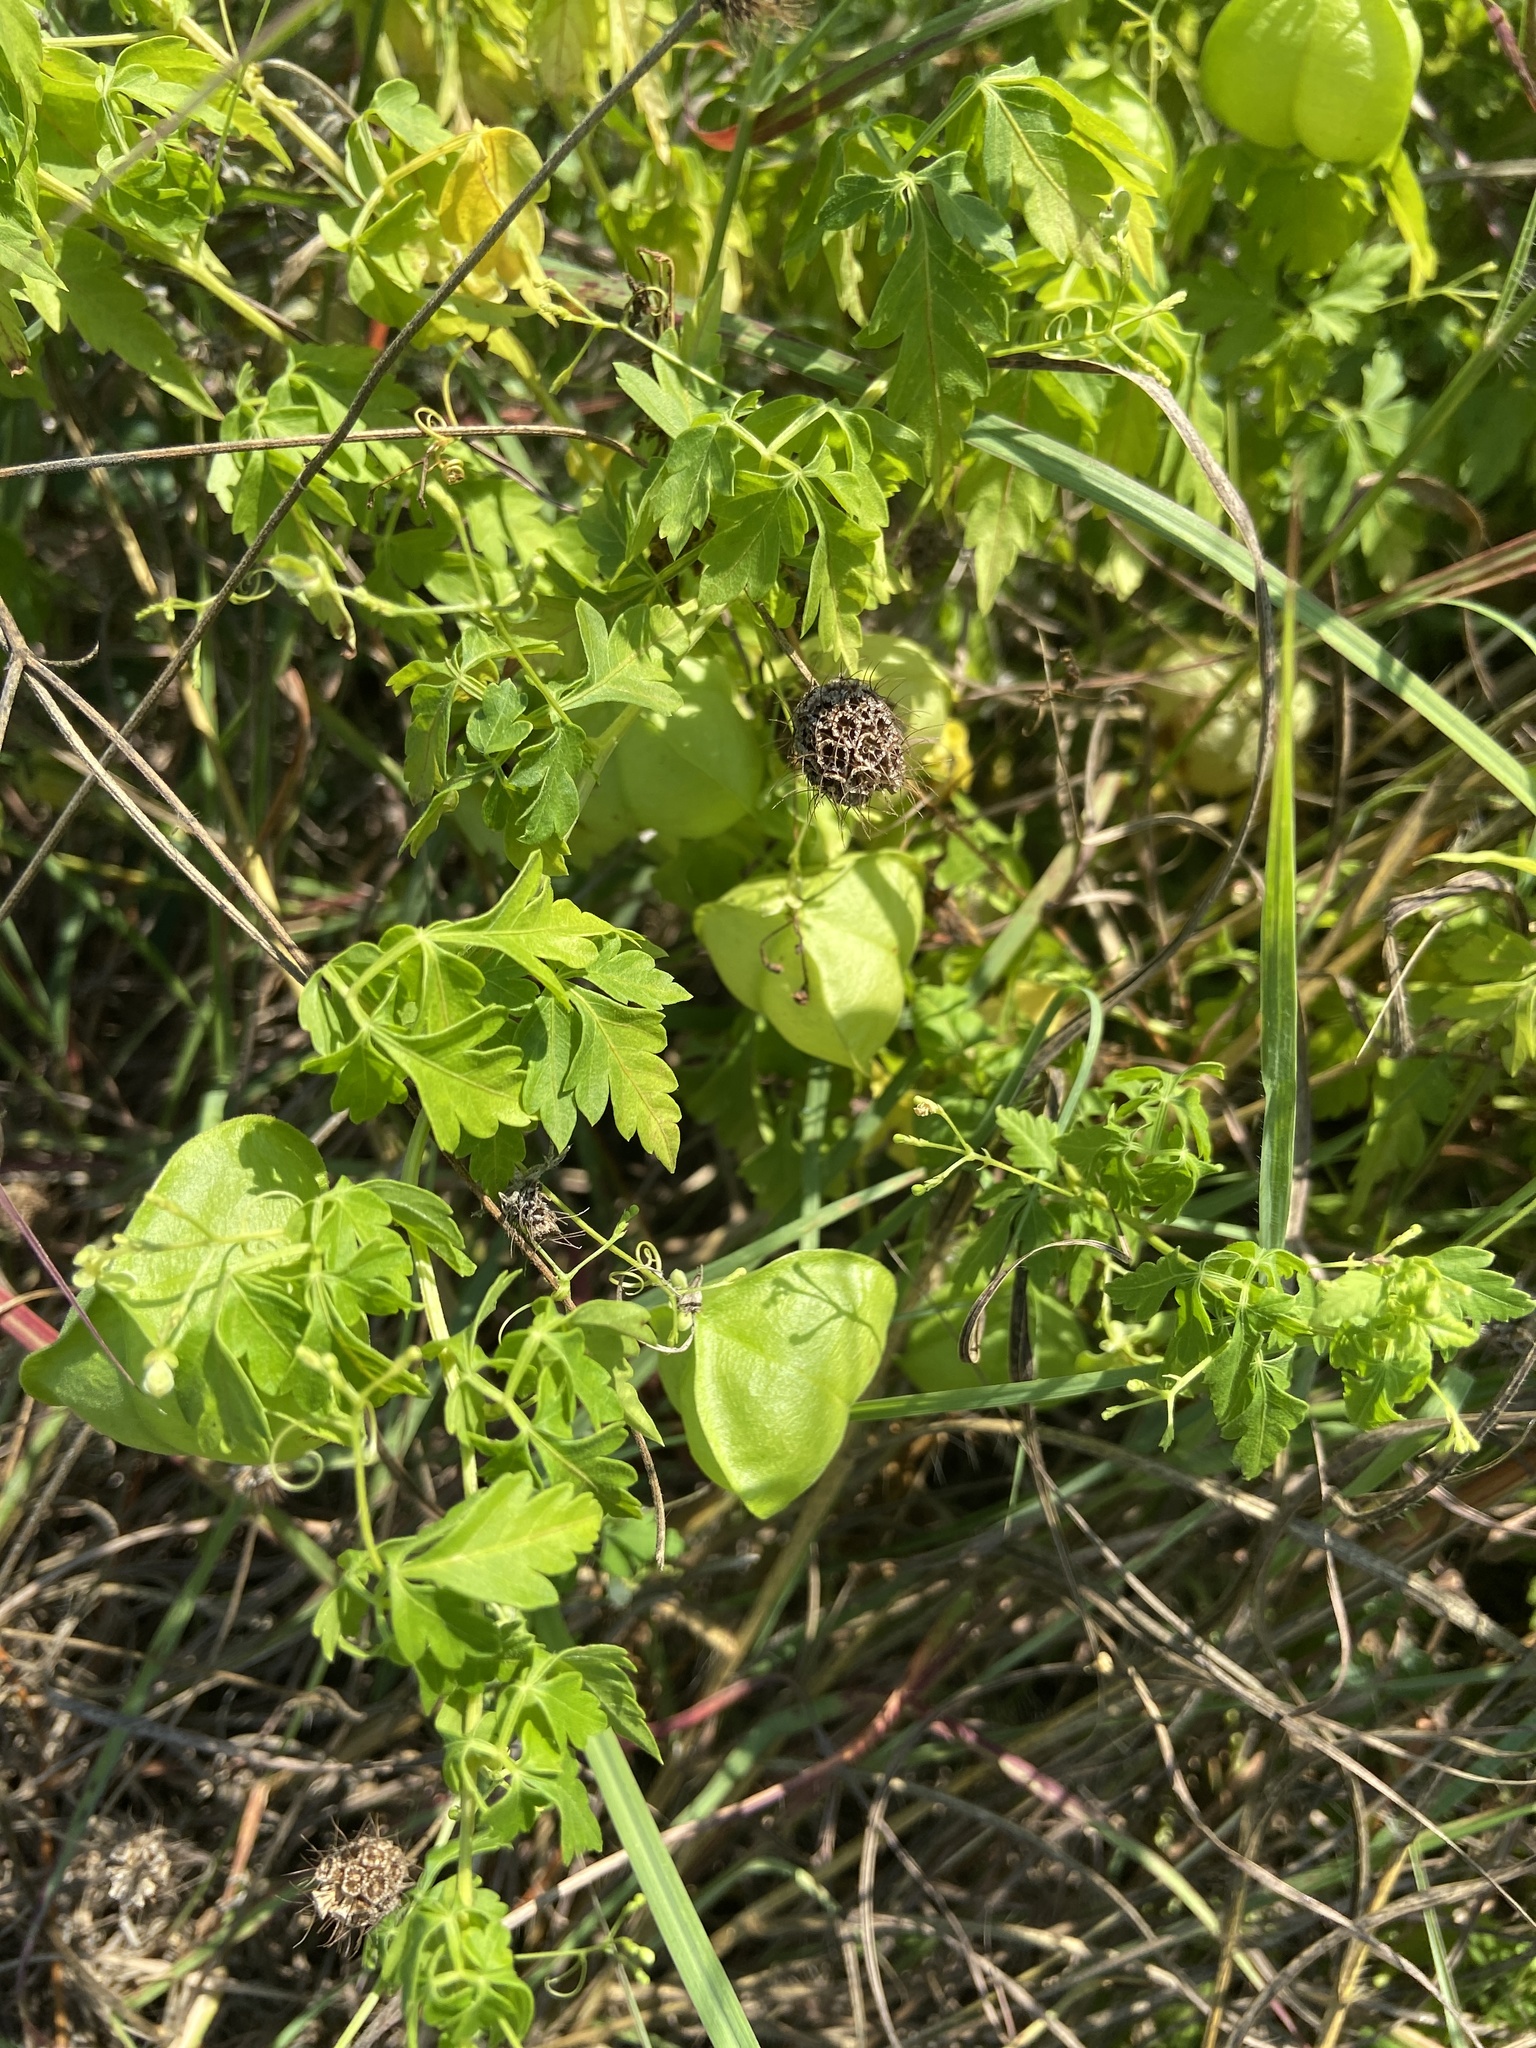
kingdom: Plantae
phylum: Tracheophyta
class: Magnoliopsida
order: Sapindales
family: Sapindaceae
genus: Cardiospermum
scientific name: Cardiospermum halicacabum
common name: Balloon vine
